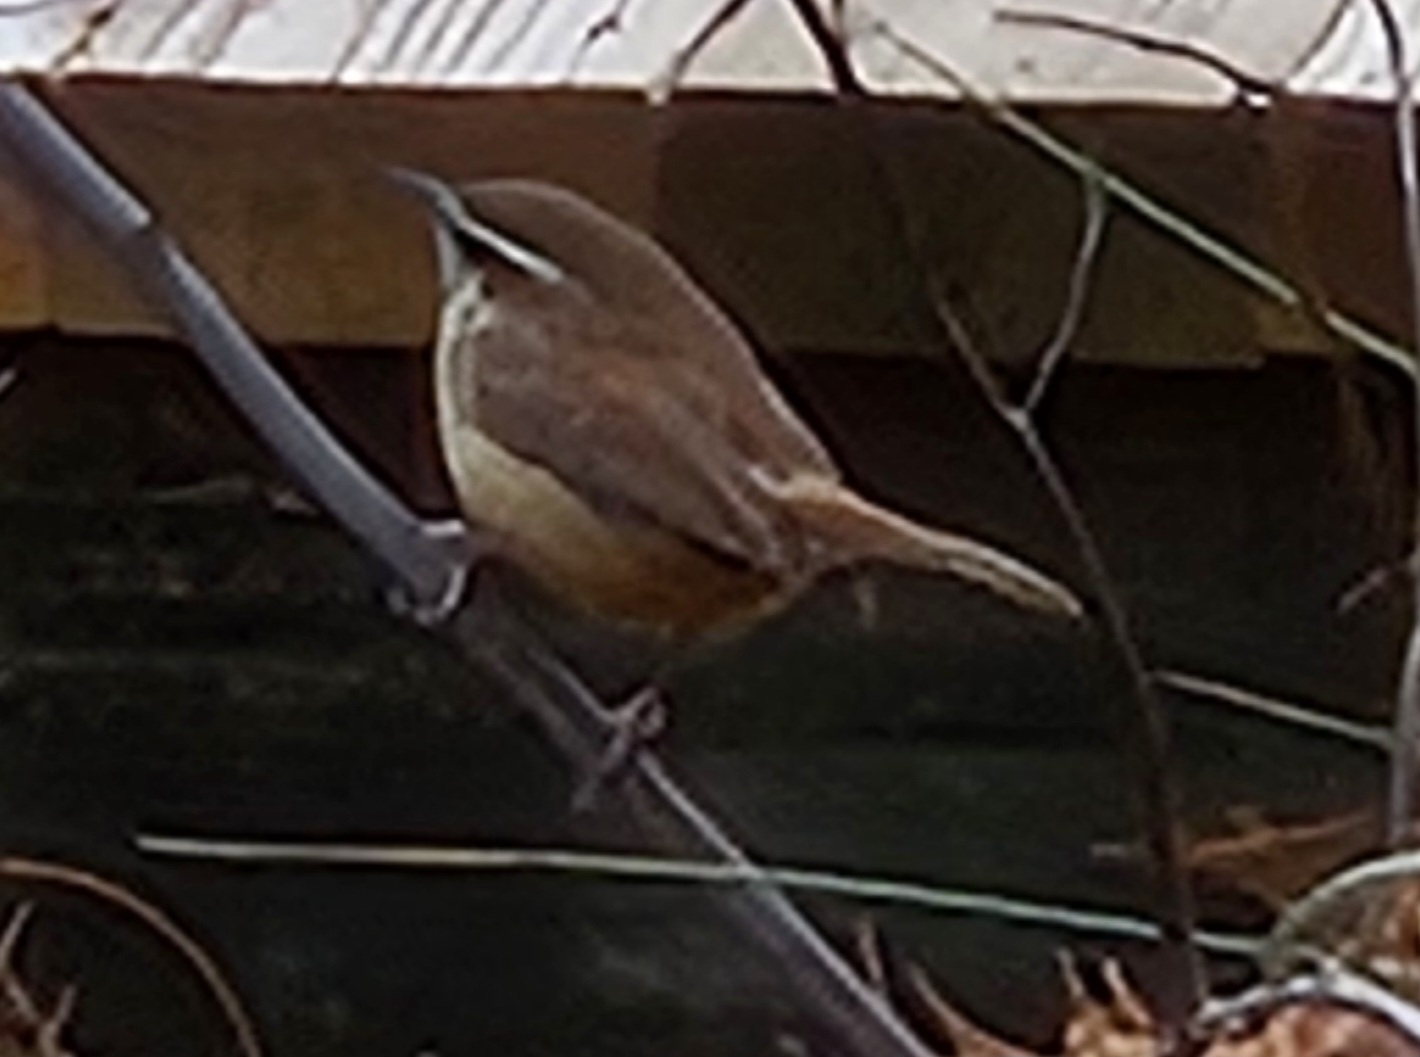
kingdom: Animalia
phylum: Chordata
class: Aves
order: Passeriformes
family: Troglodytidae
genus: Thryothorus
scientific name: Thryothorus ludovicianus
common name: Carolina wren
